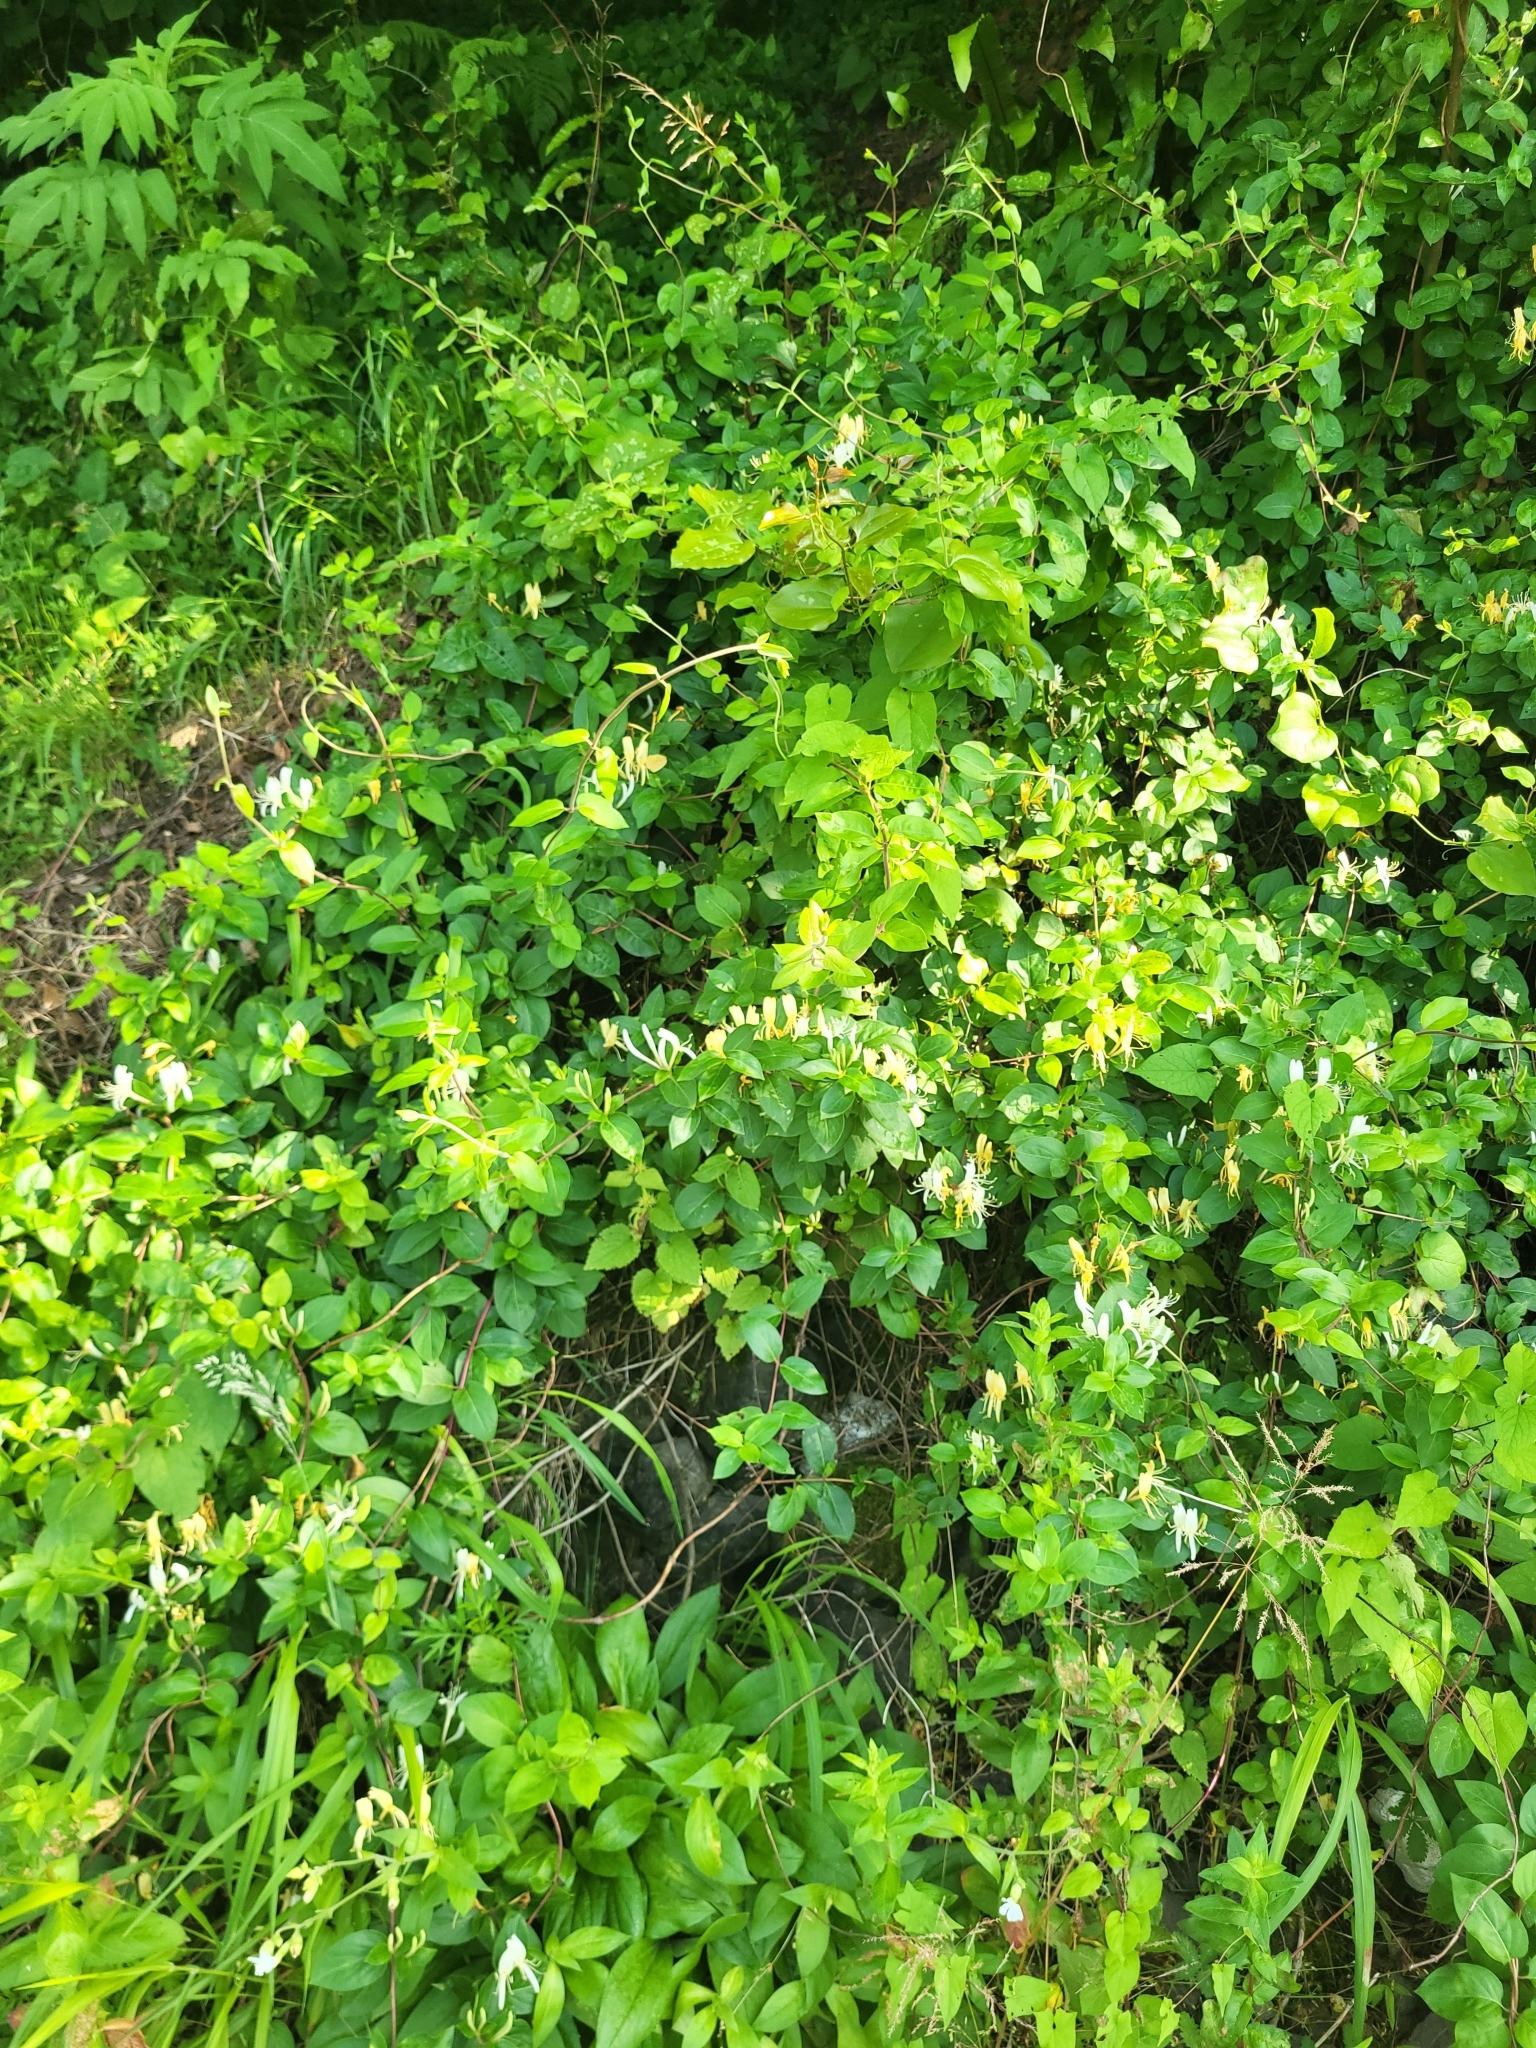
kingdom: Plantae
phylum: Tracheophyta
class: Magnoliopsida
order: Dipsacales
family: Caprifoliaceae
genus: Lonicera
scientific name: Lonicera japonica
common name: Japanese honeysuckle
